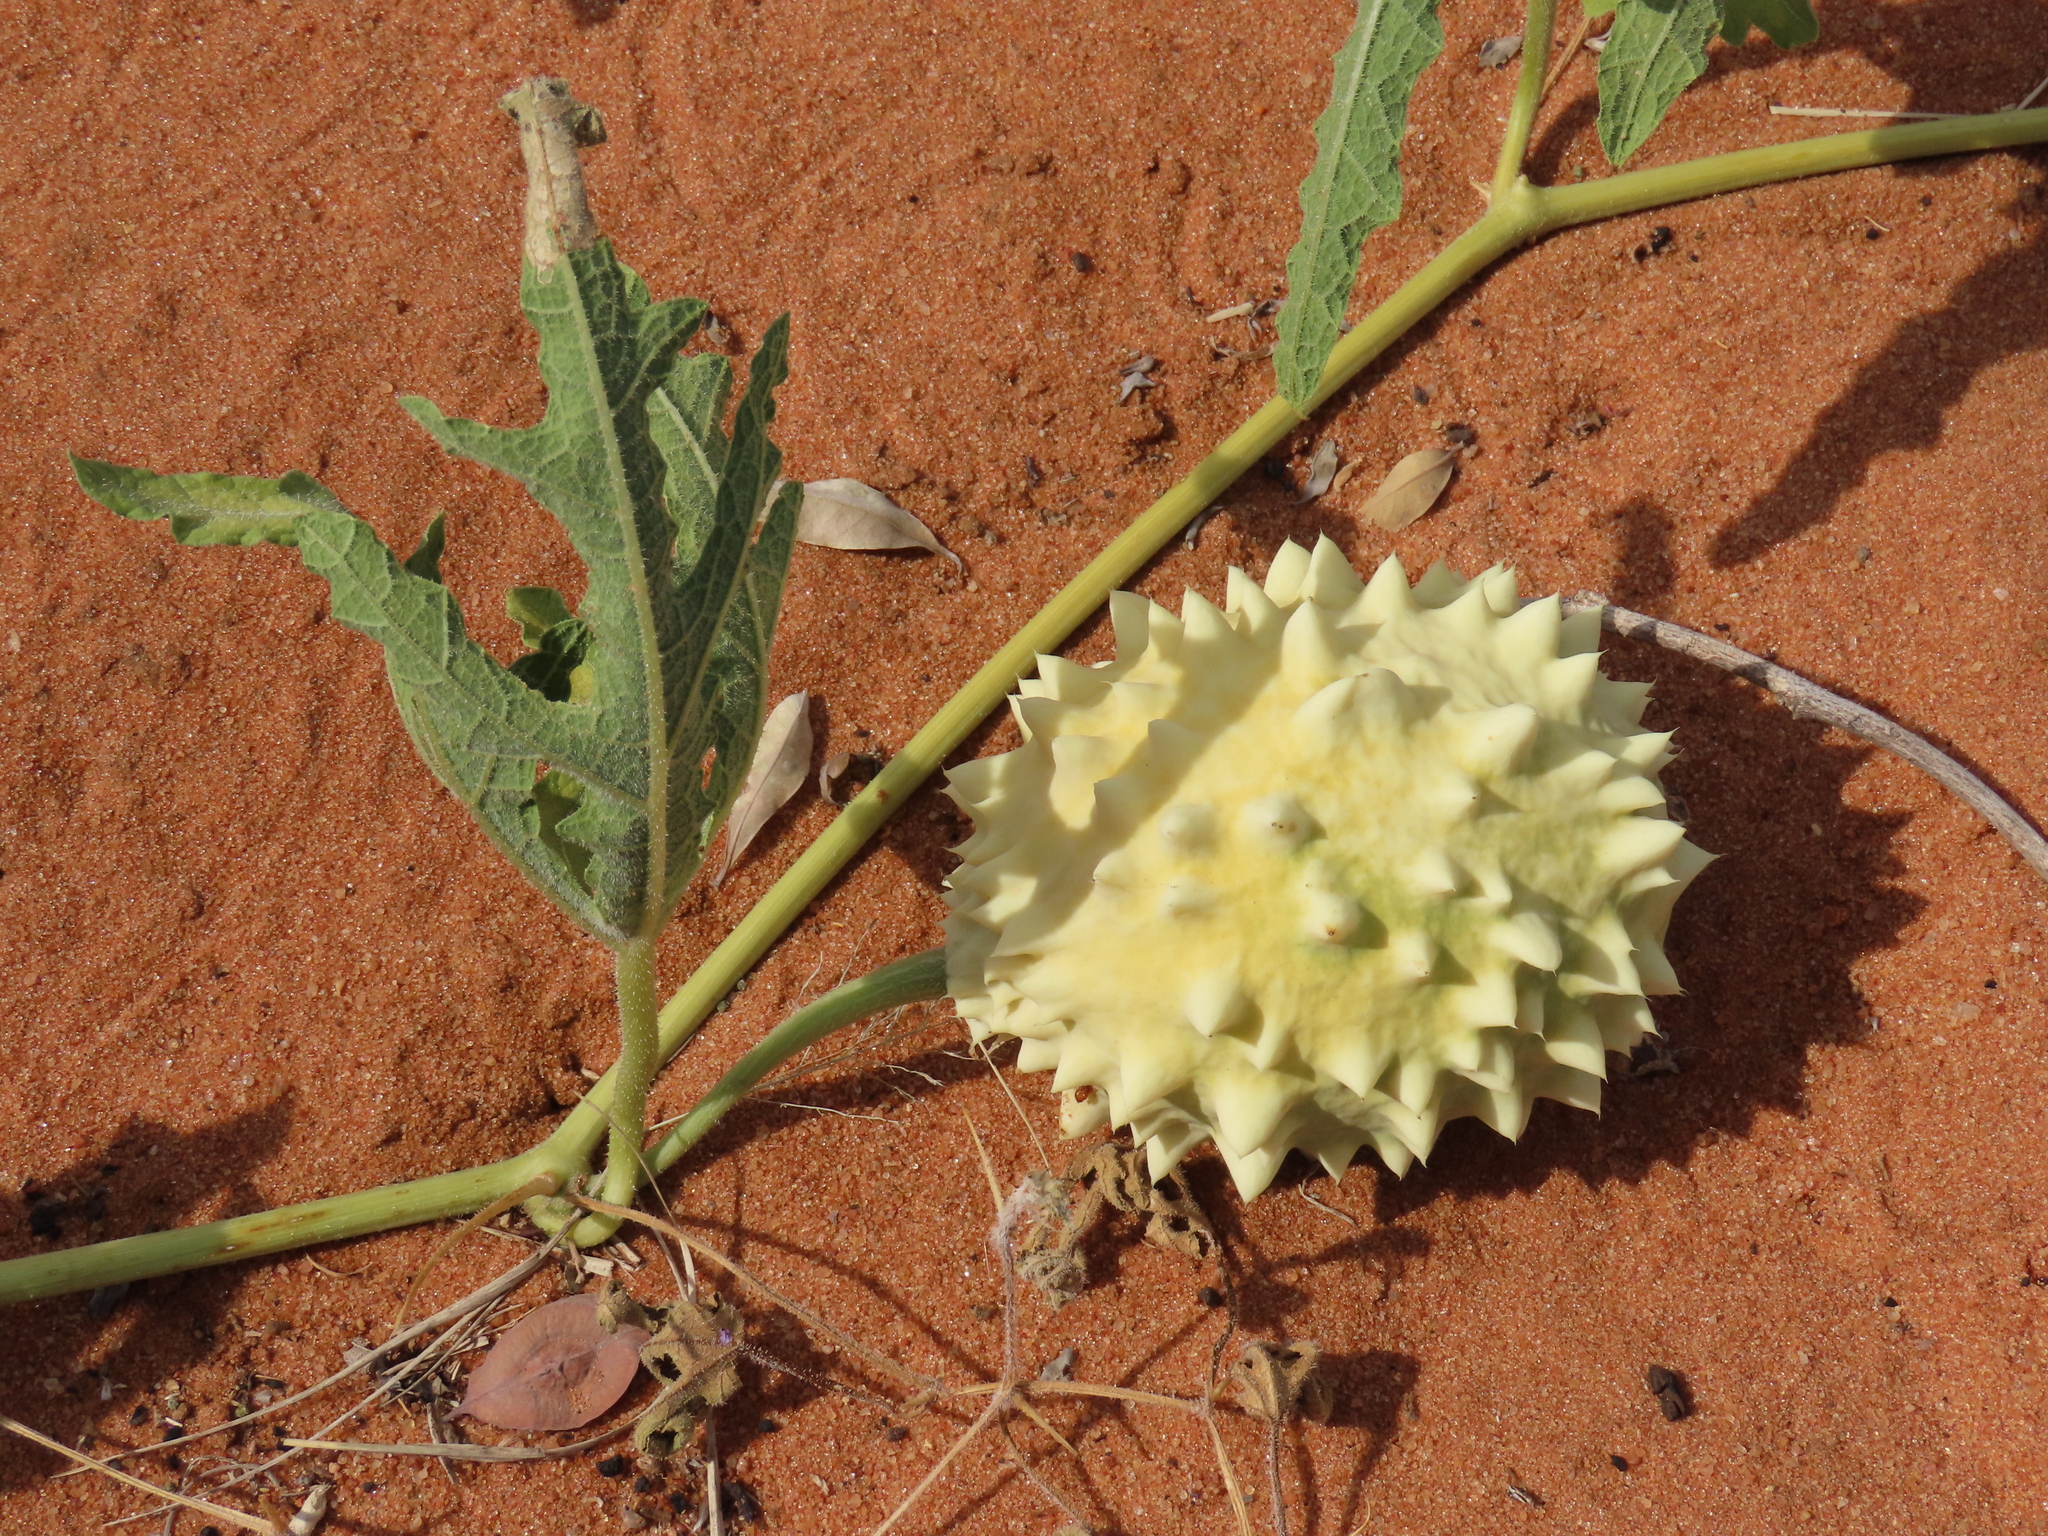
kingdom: Plantae
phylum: Tracheophyta
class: Magnoliopsida
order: Cucurbitales
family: Cucurbitaceae
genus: Citrullus
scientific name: Citrullus naudinianus
